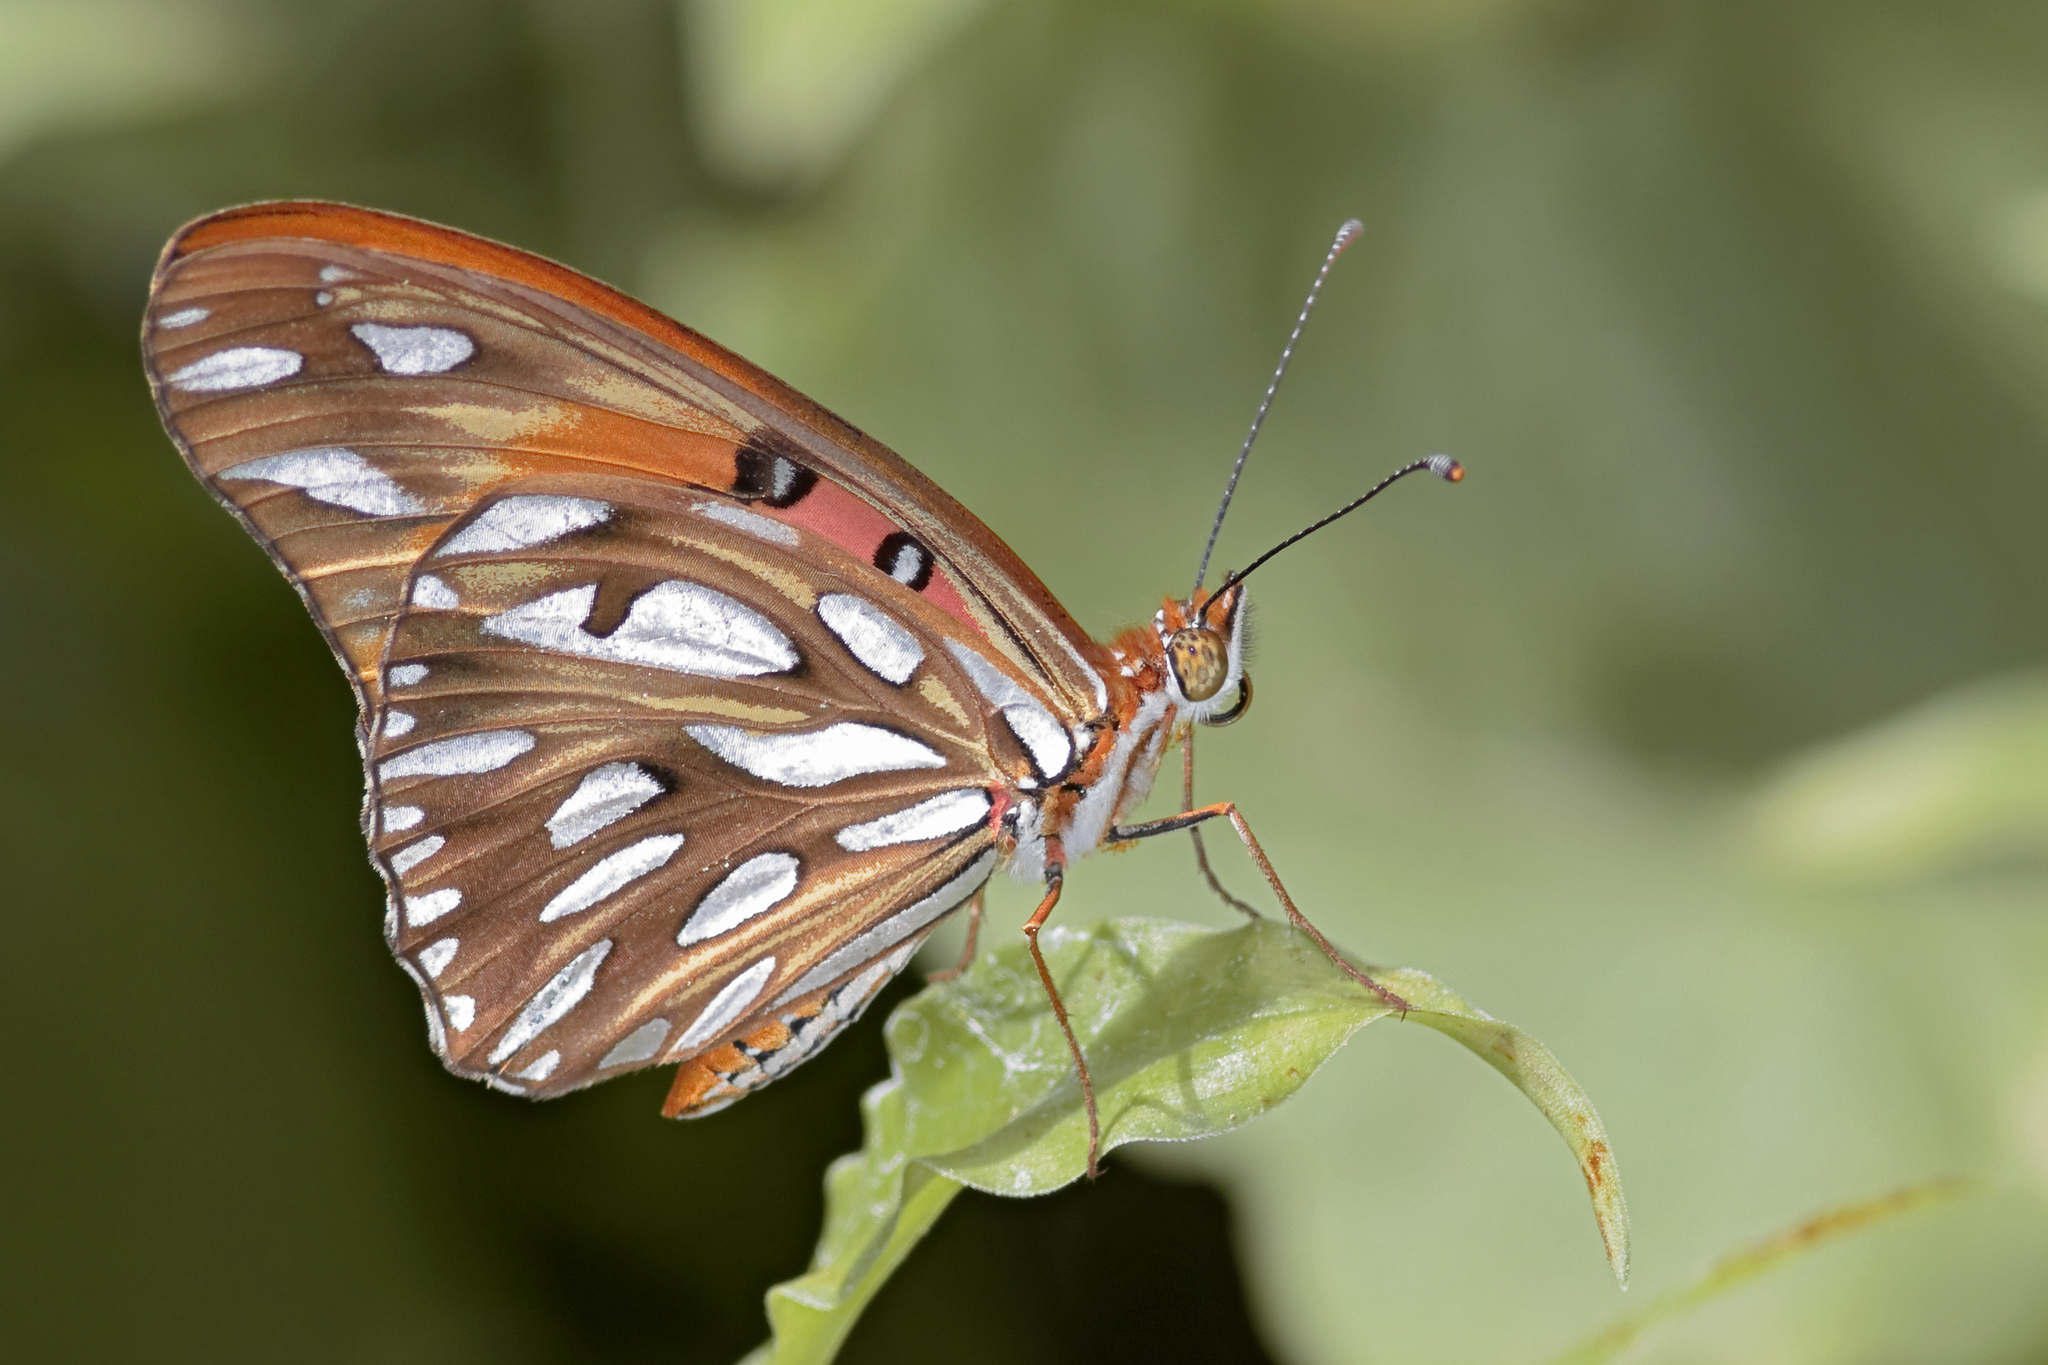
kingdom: Animalia
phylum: Arthropoda
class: Insecta
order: Lepidoptera
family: Nymphalidae
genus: Dione
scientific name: Dione vanillae
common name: Gulf fritillary
